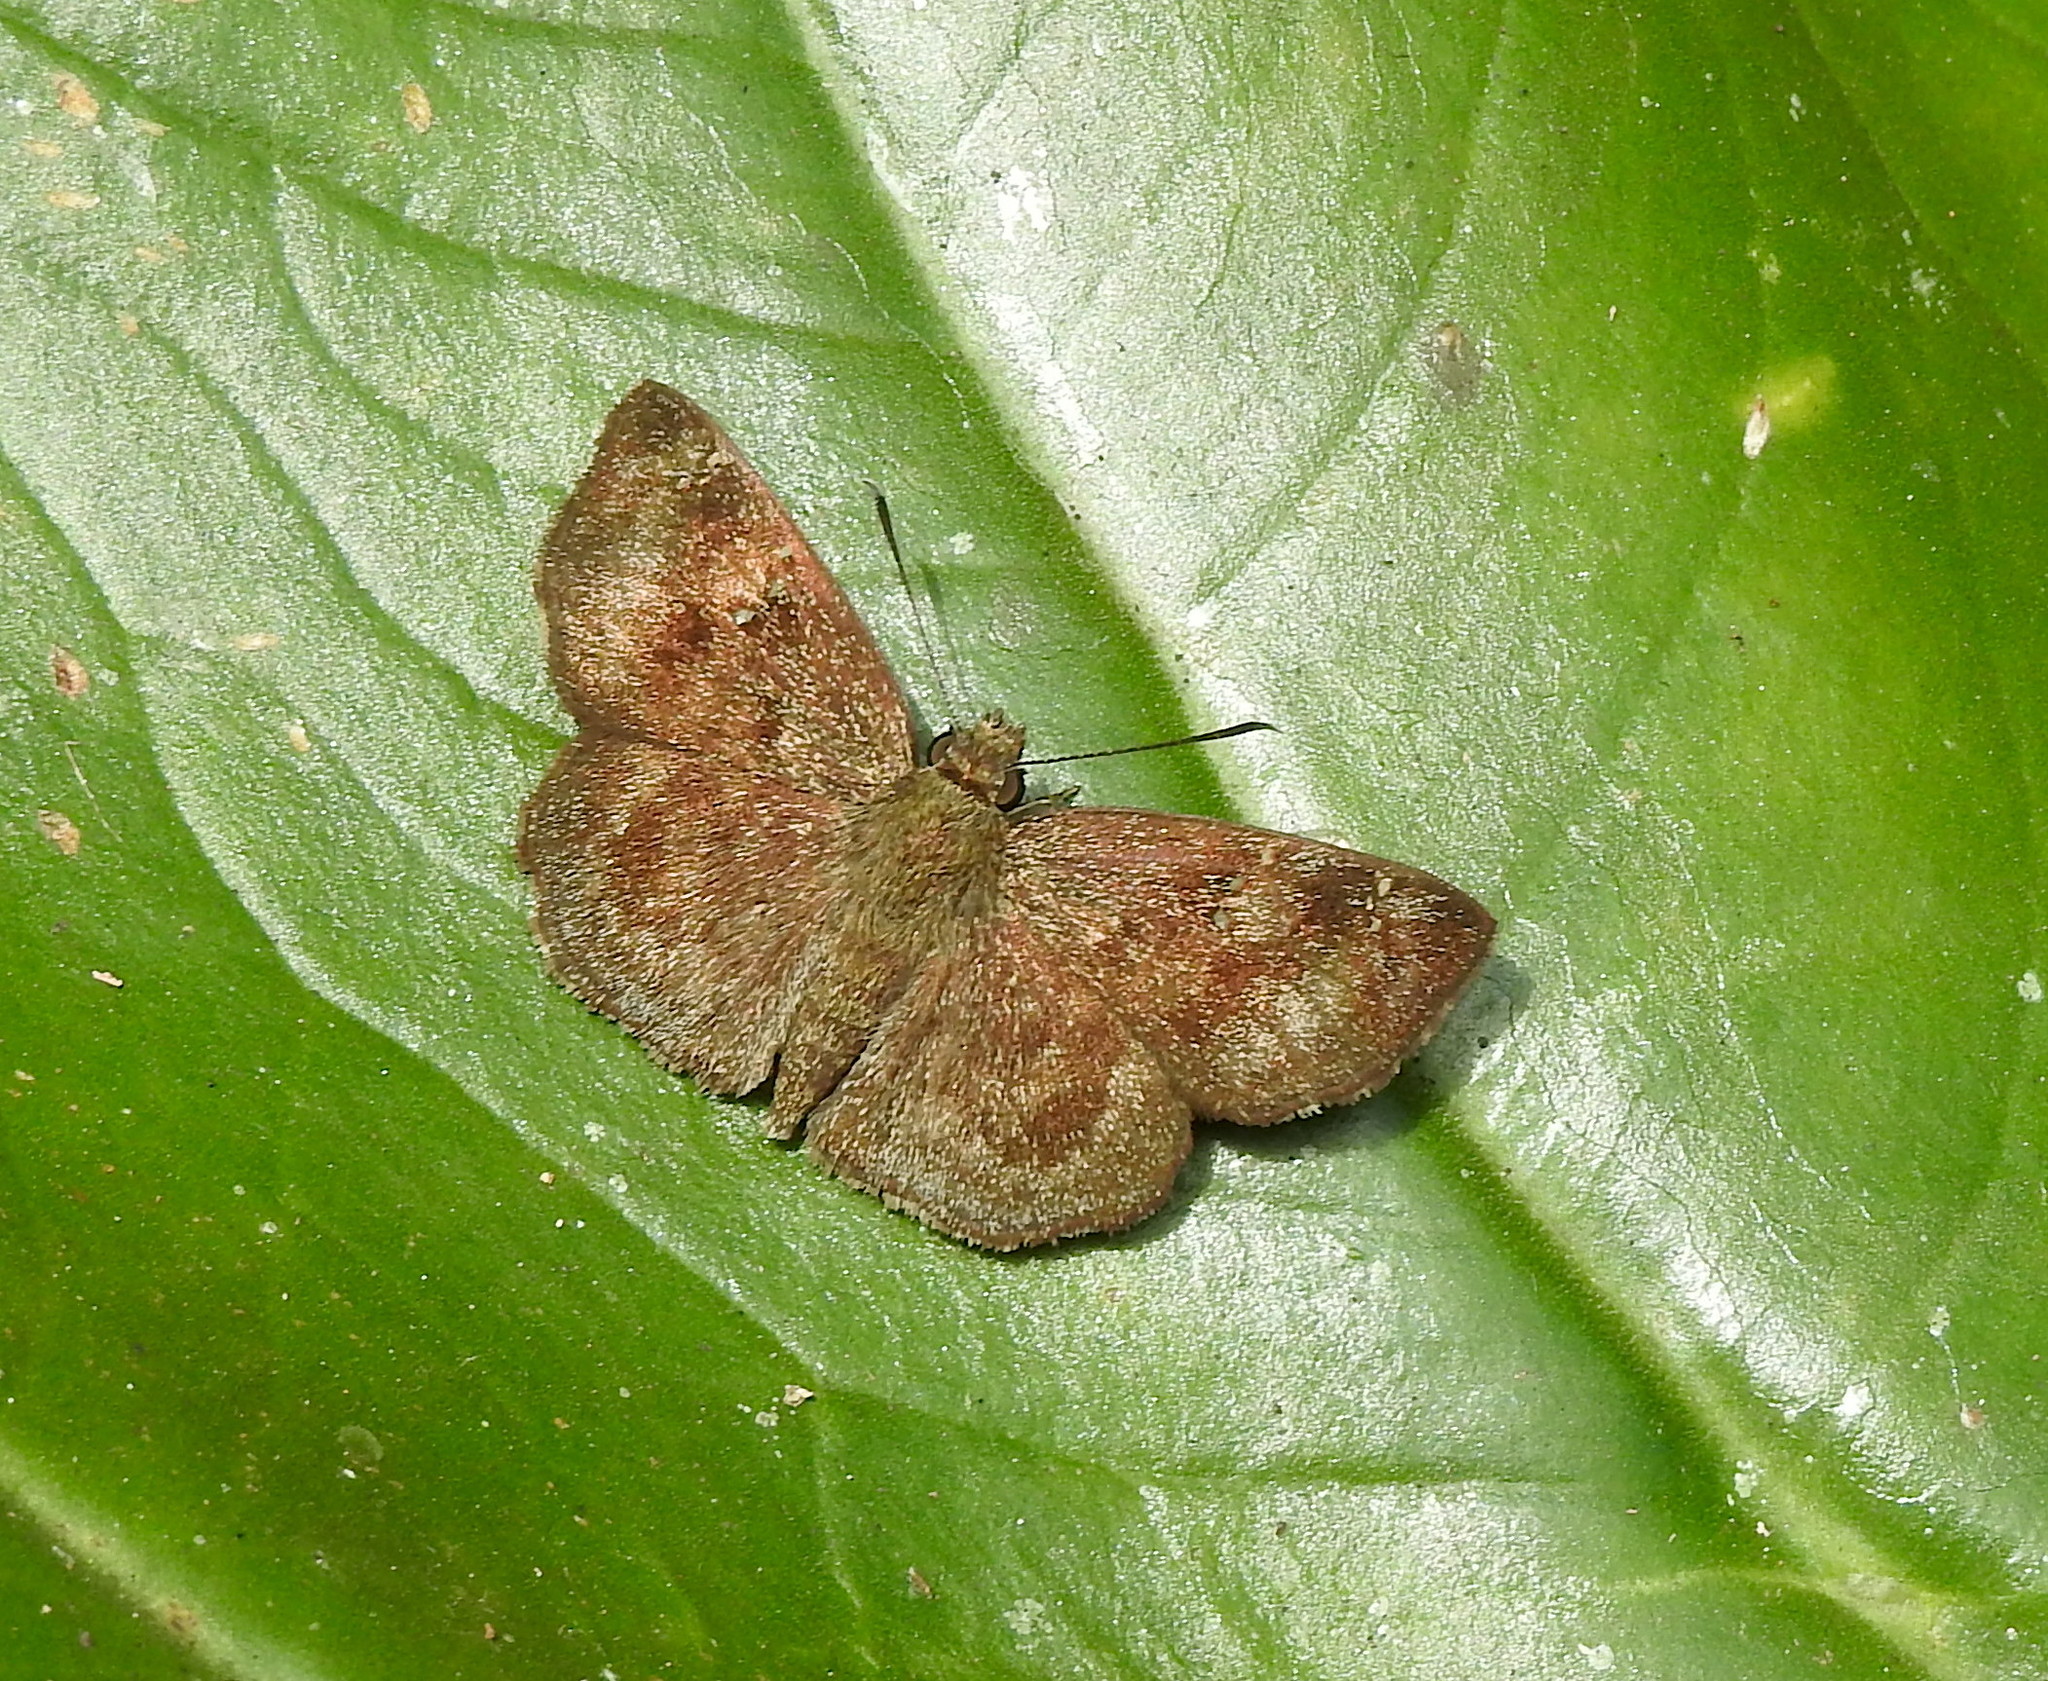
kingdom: Animalia
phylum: Arthropoda
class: Insecta
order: Lepidoptera
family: Hesperiidae
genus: Sarangesa
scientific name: Sarangesa dasahara
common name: Common small flat
